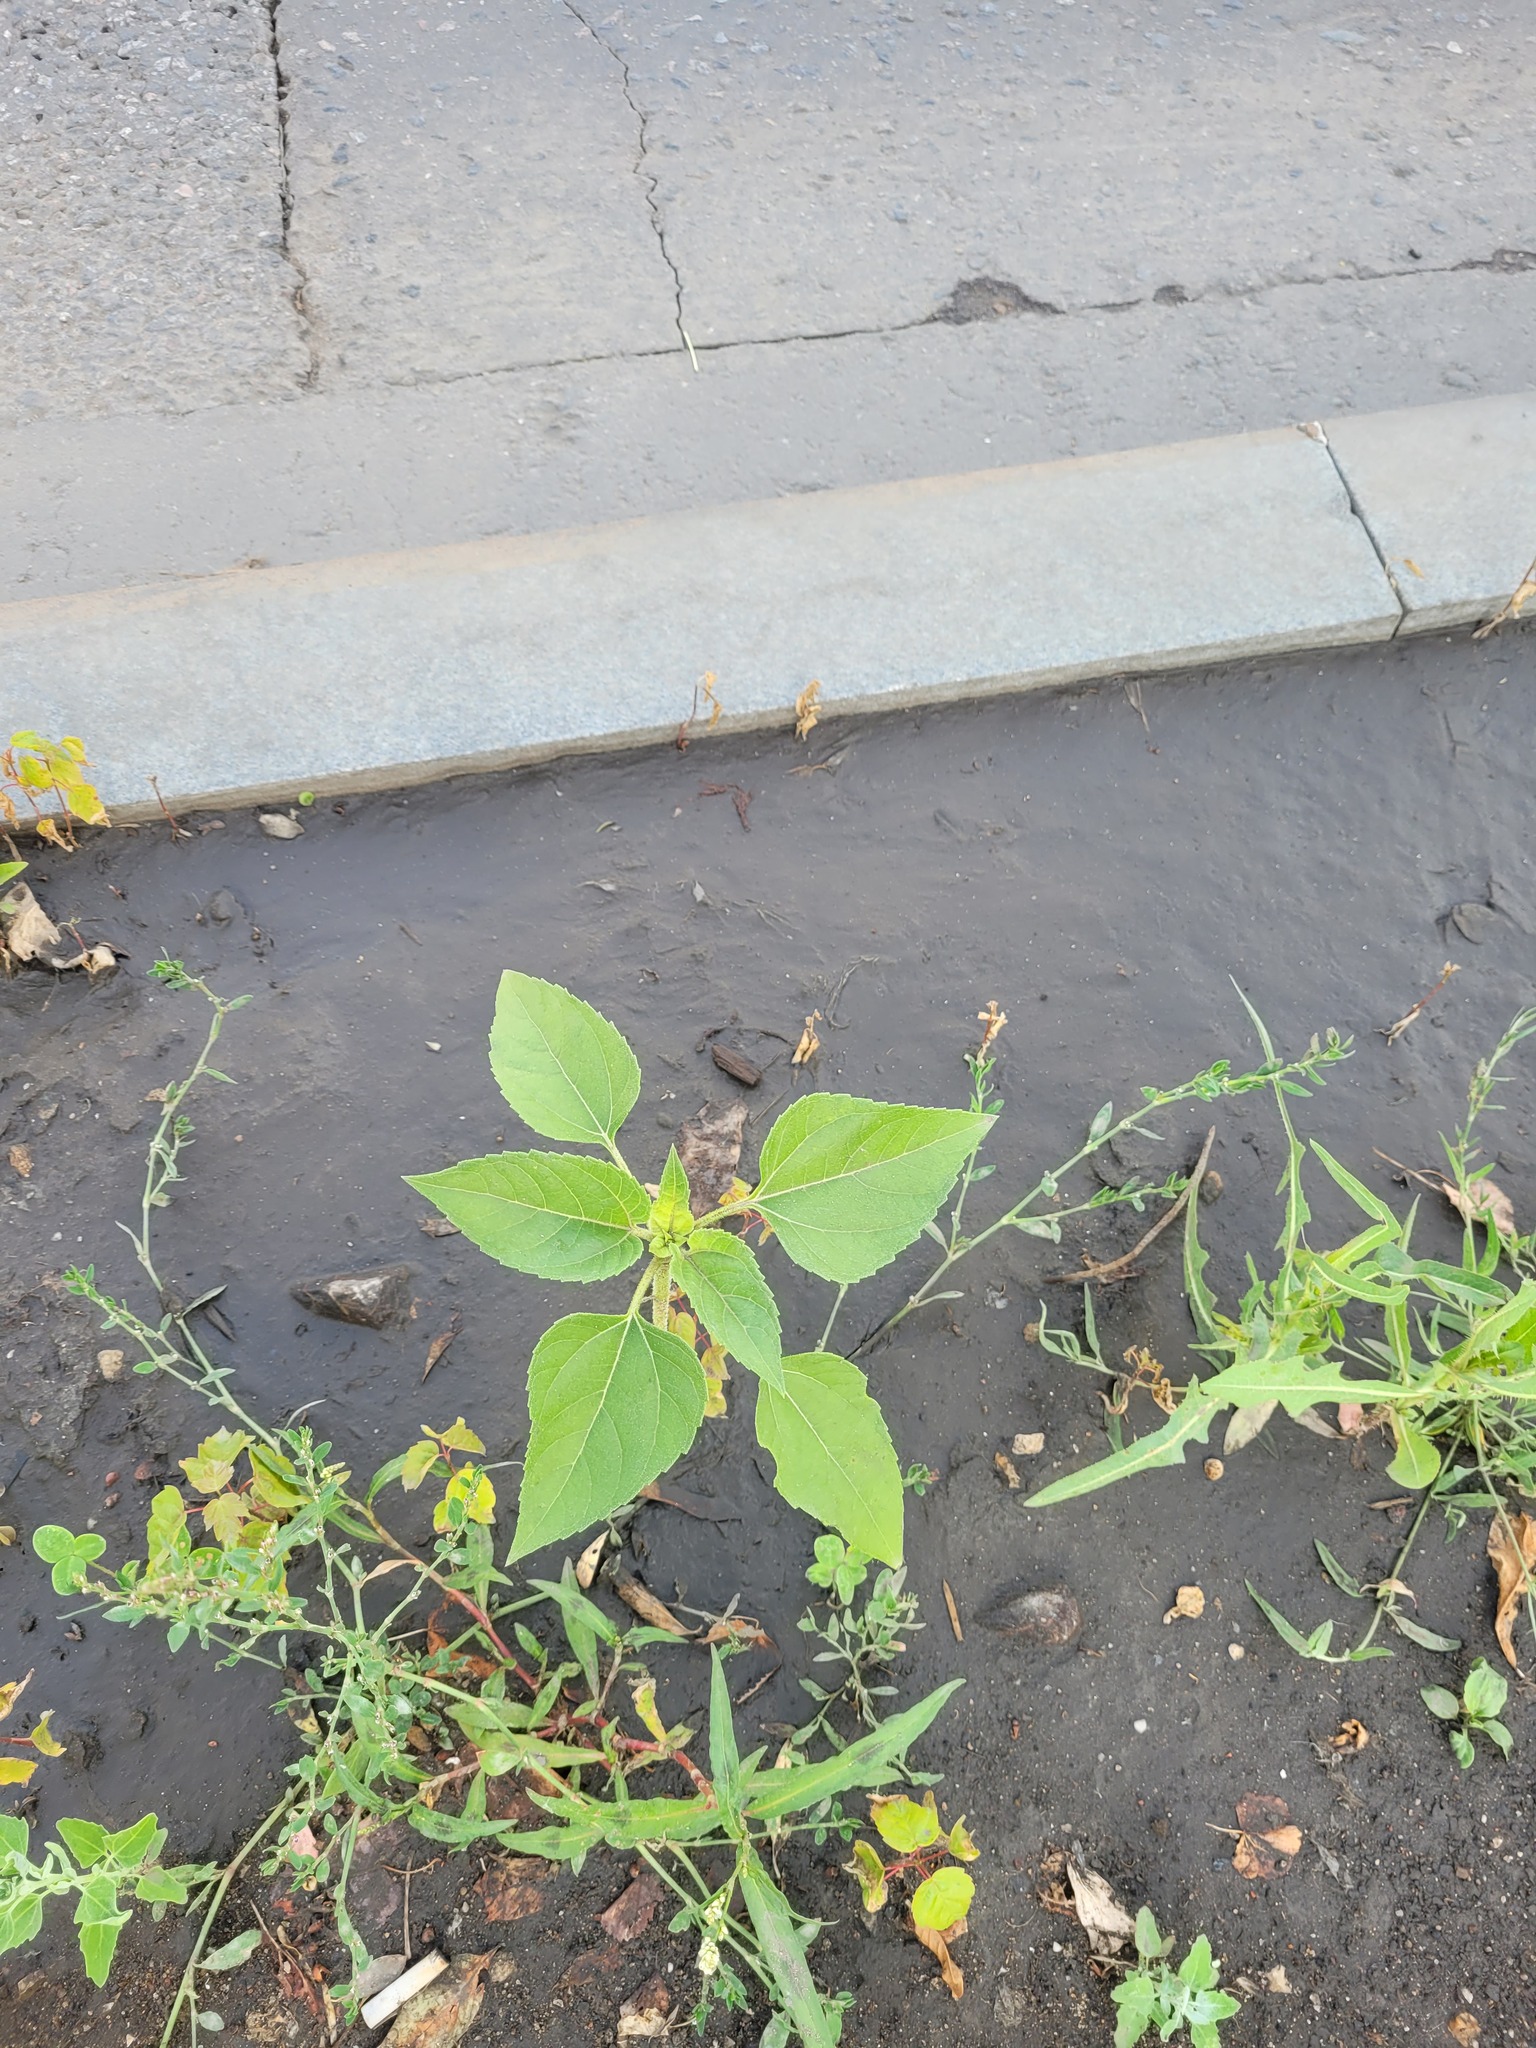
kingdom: Plantae
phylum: Tracheophyta
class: Magnoliopsida
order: Asterales
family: Asteraceae
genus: Helianthus
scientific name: Helianthus annuus
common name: Sunflower
